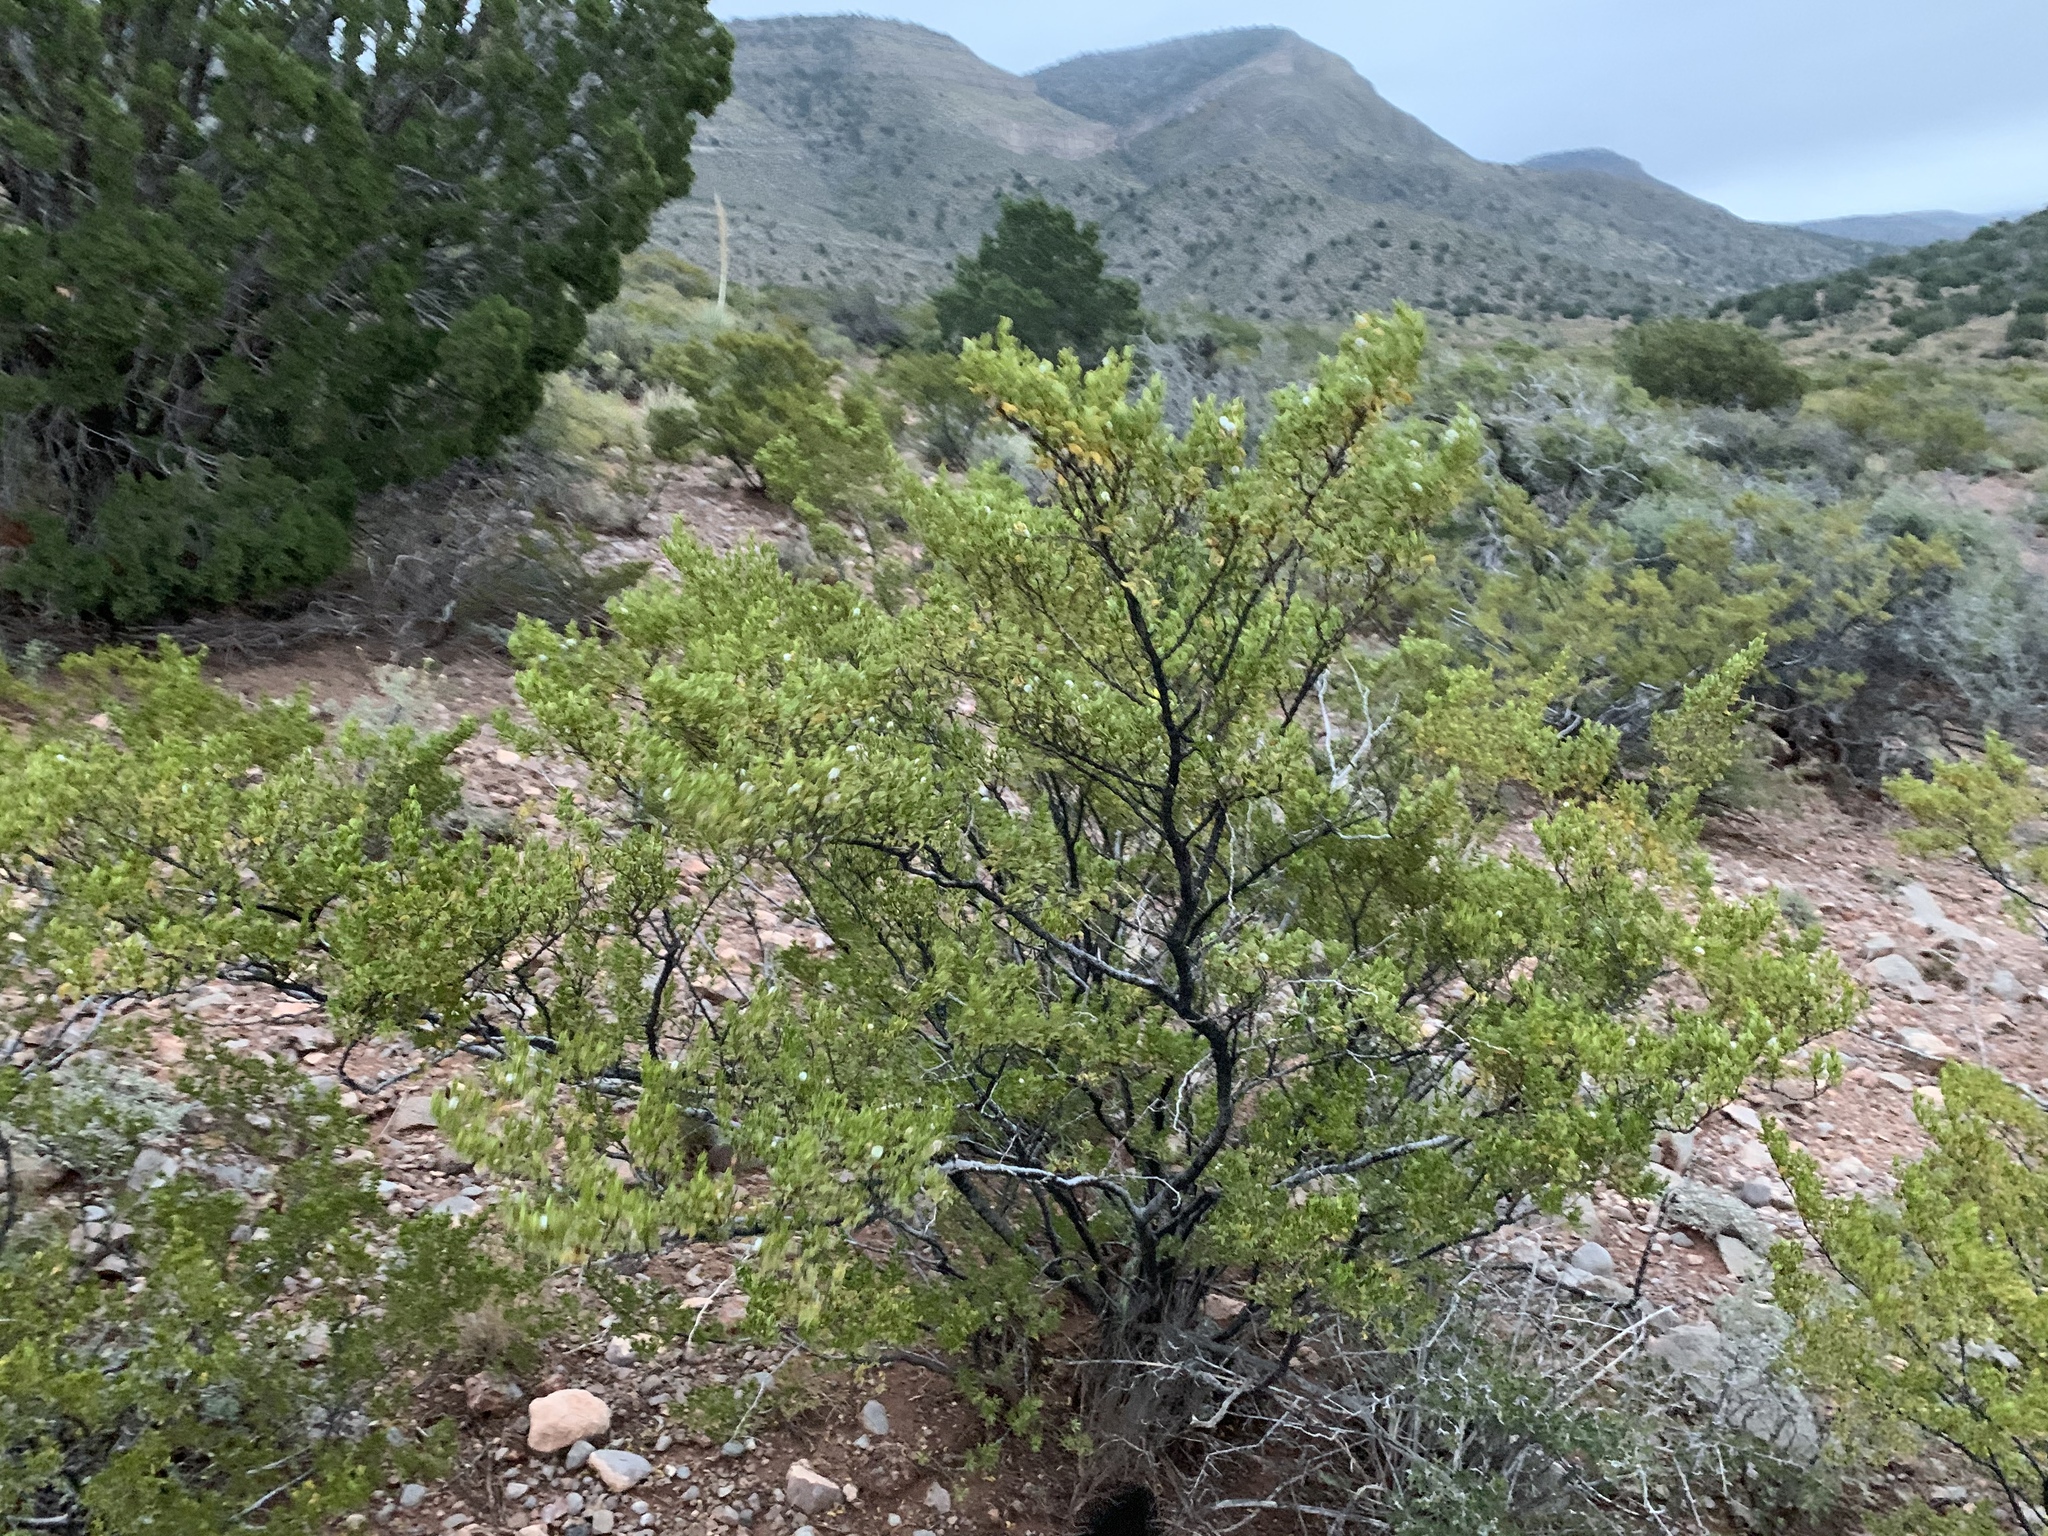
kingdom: Plantae
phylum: Tracheophyta
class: Magnoliopsida
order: Zygophyllales
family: Zygophyllaceae
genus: Larrea
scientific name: Larrea tridentata
